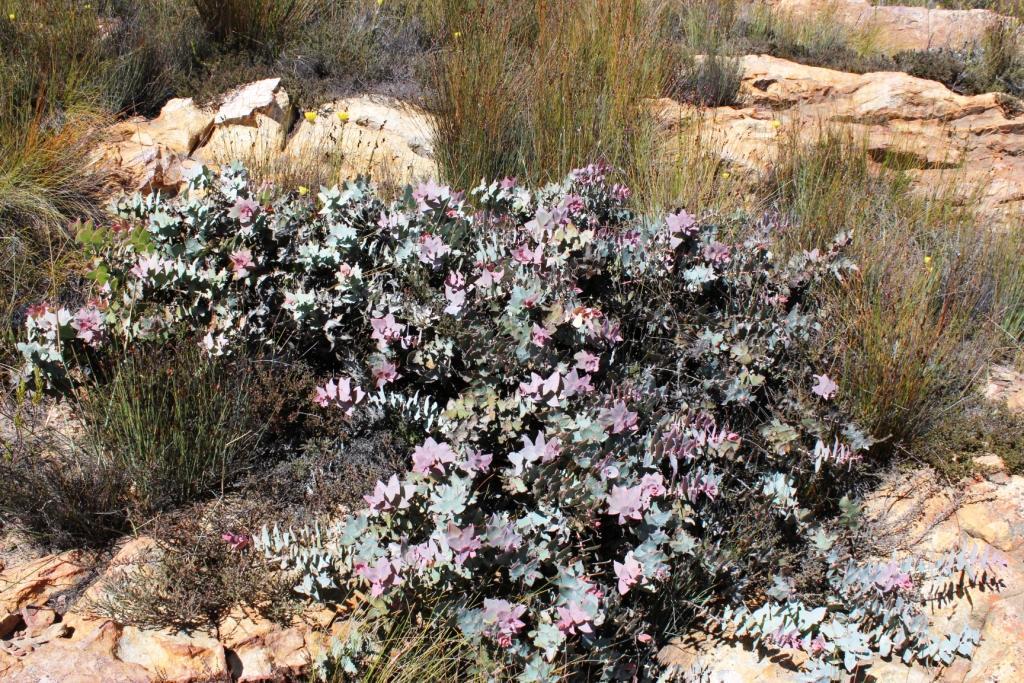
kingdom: Plantae
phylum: Tracheophyta
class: Magnoliopsida
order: Proteales
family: Proteaceae
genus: Protea
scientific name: Protea amplexicaulis
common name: Clasping-leaf sugarbush
